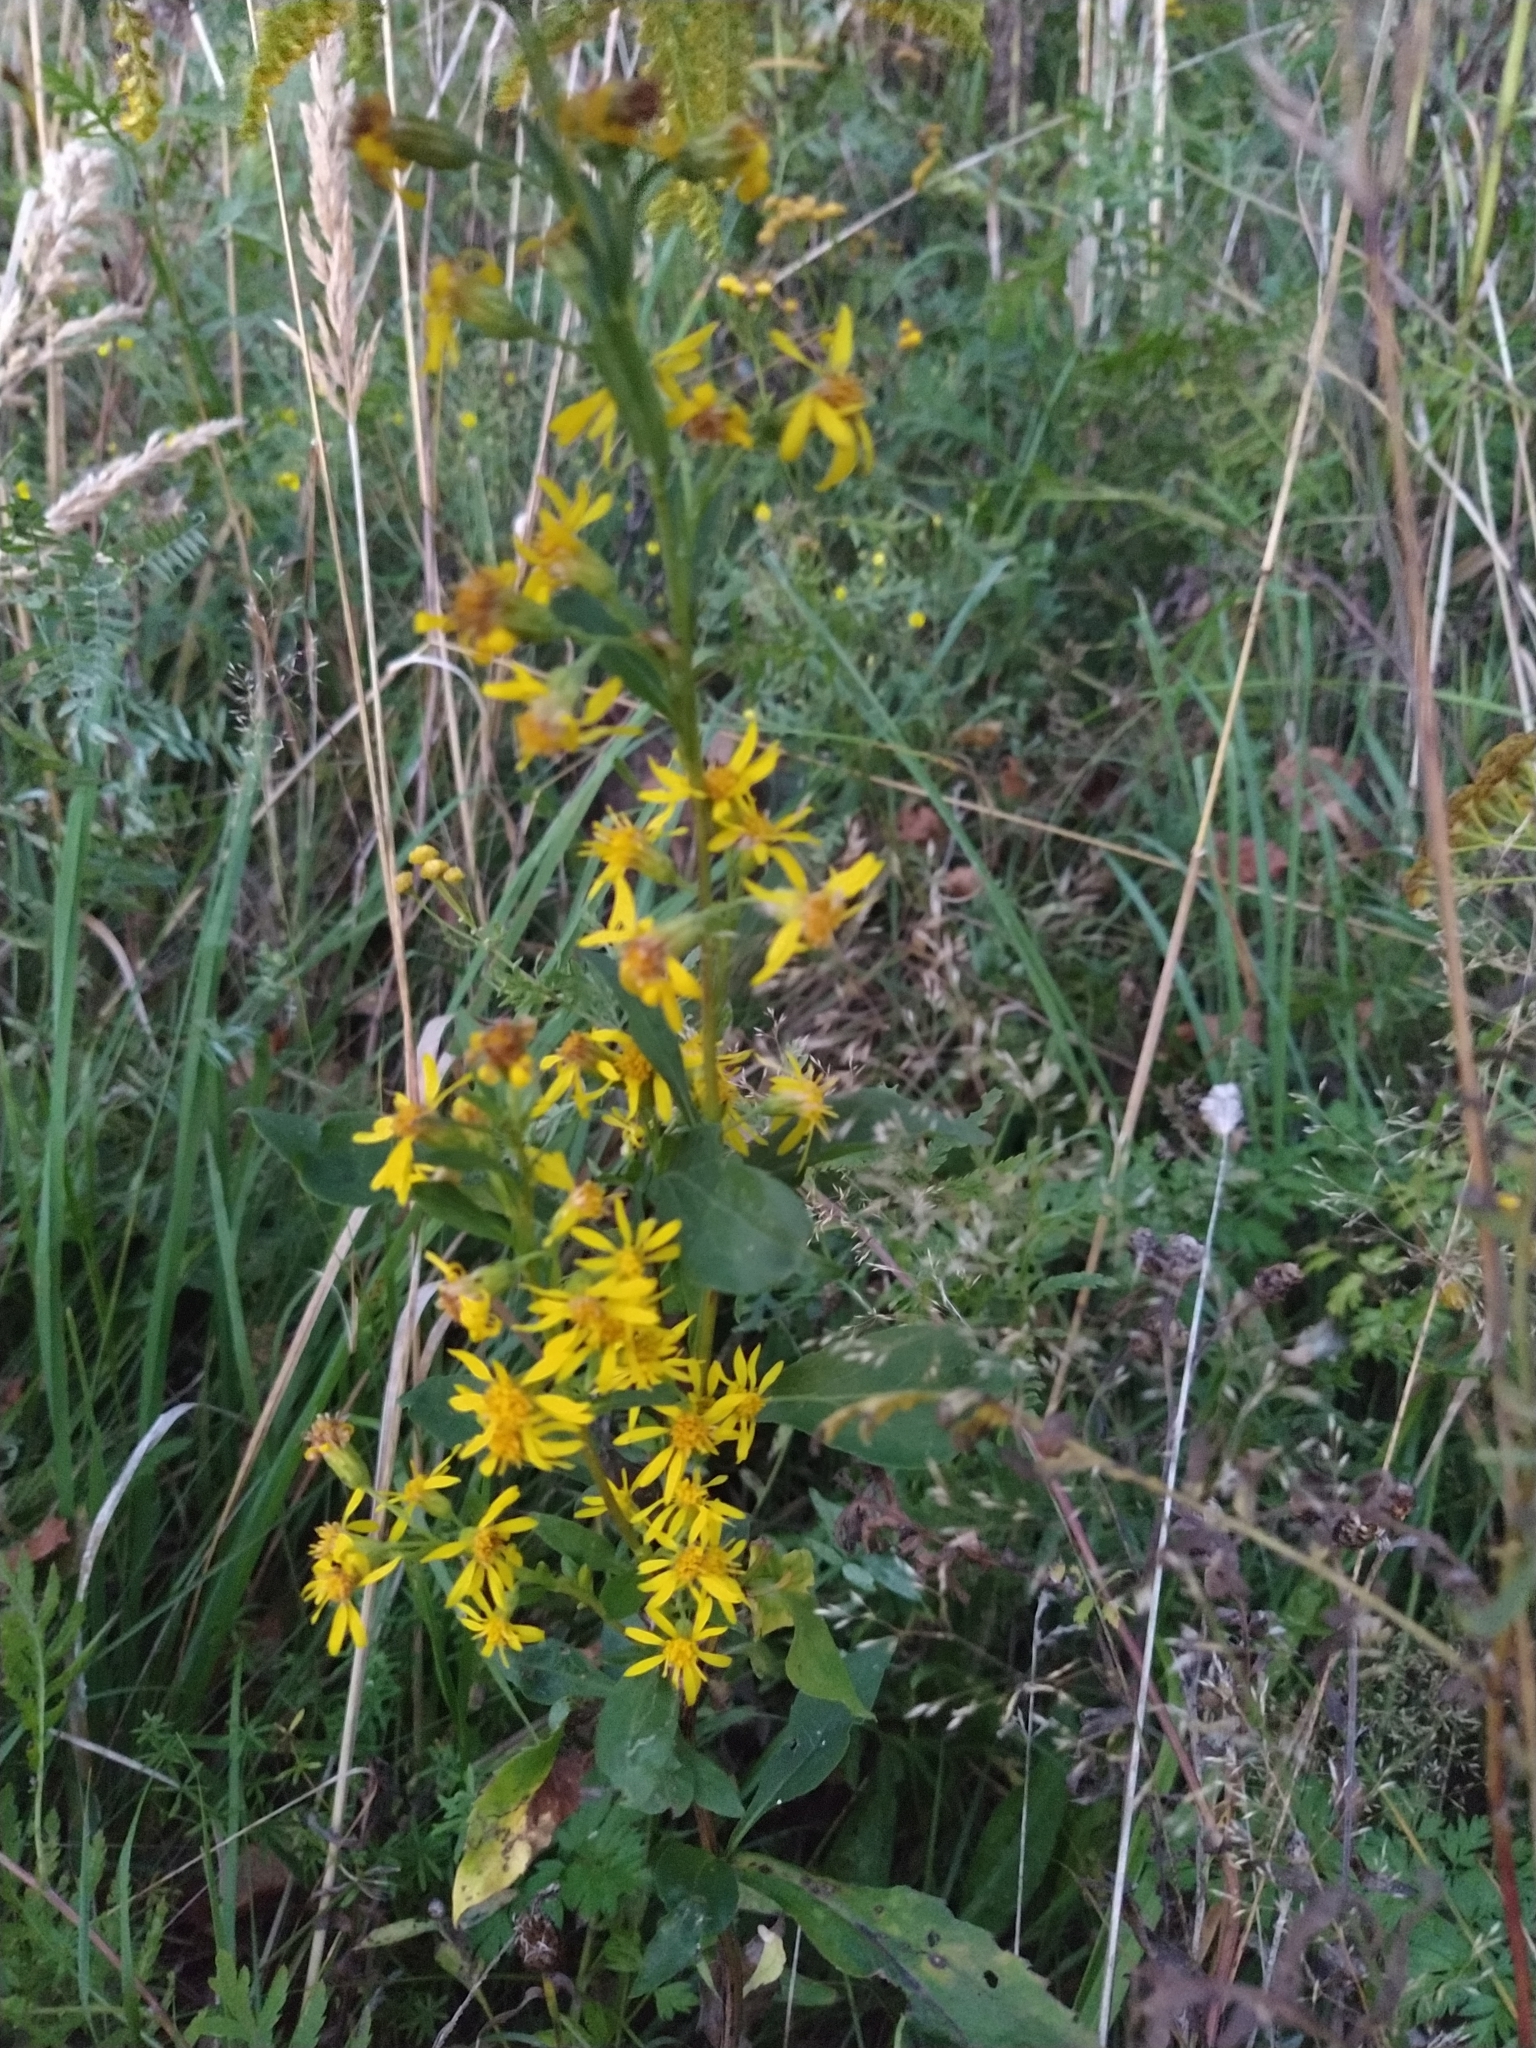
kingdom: Plantae
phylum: Tracheophyta
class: Magnoliopsida
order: Asterales
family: Asteraceae
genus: Solidago
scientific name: Solidago virgaurea
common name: Goldenrod
